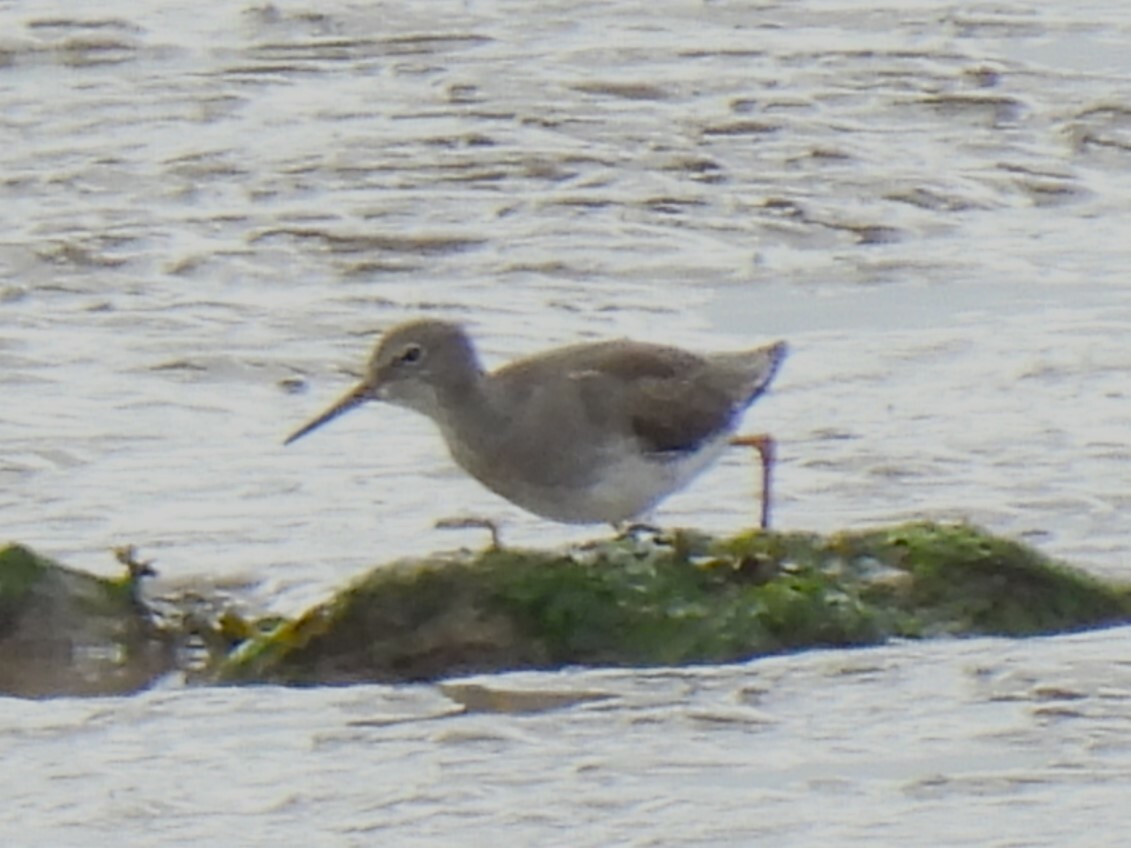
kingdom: Animalia
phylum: Chordata
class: Aves
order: Charadriiformes
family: Scolopacidae
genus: Tringa
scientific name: Tringa totanus
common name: Common redshank
